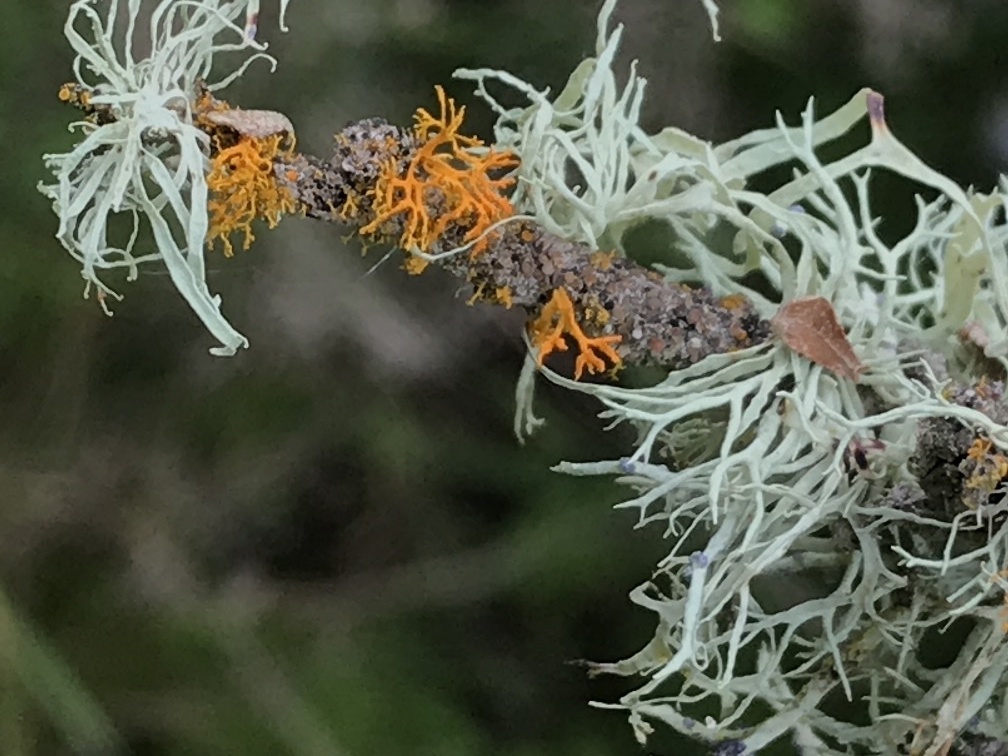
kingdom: Fungi
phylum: Ascomycota
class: Lecanoromycetes
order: Teloschistales
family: Teloschistaceae
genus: Massjukiella
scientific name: Massjukiella pollinarioides
